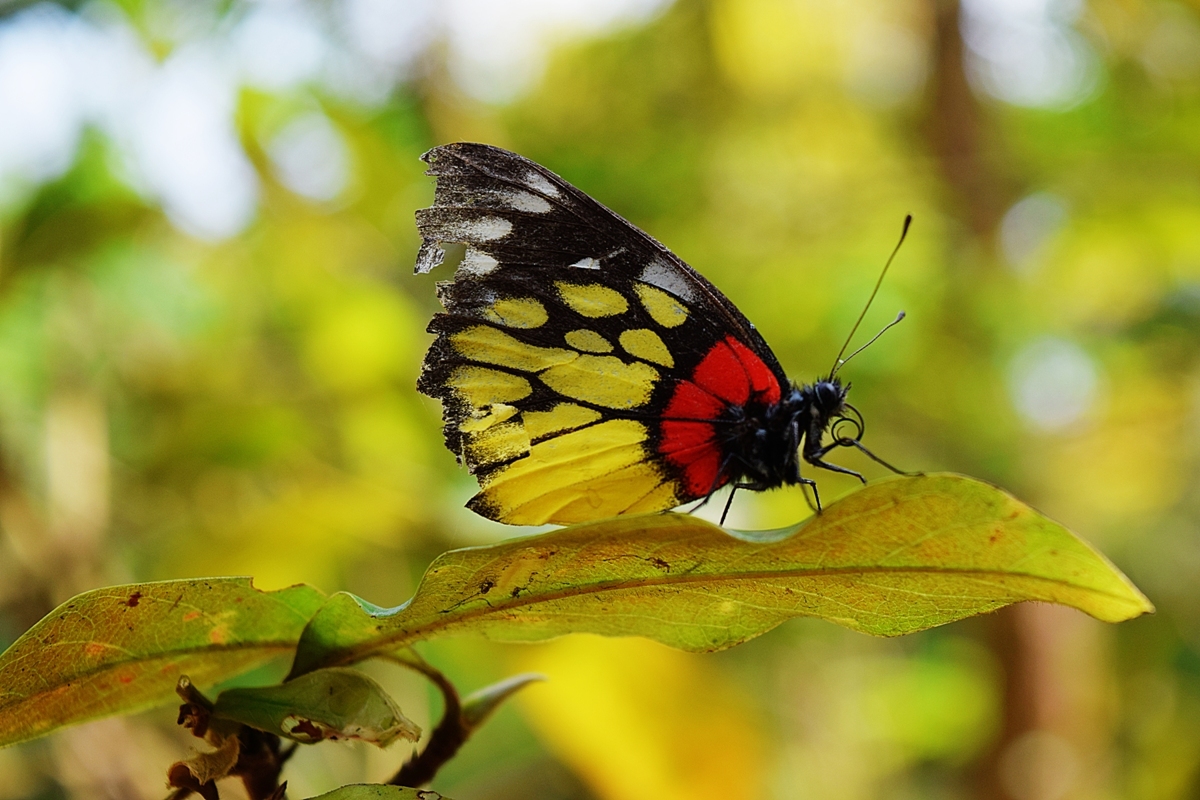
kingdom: Animalia
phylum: Arthropoda
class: Insecta
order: Lepidoptera
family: Pieridae
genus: Delias
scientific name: Delias pasithoe
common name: Red-base jezebel
